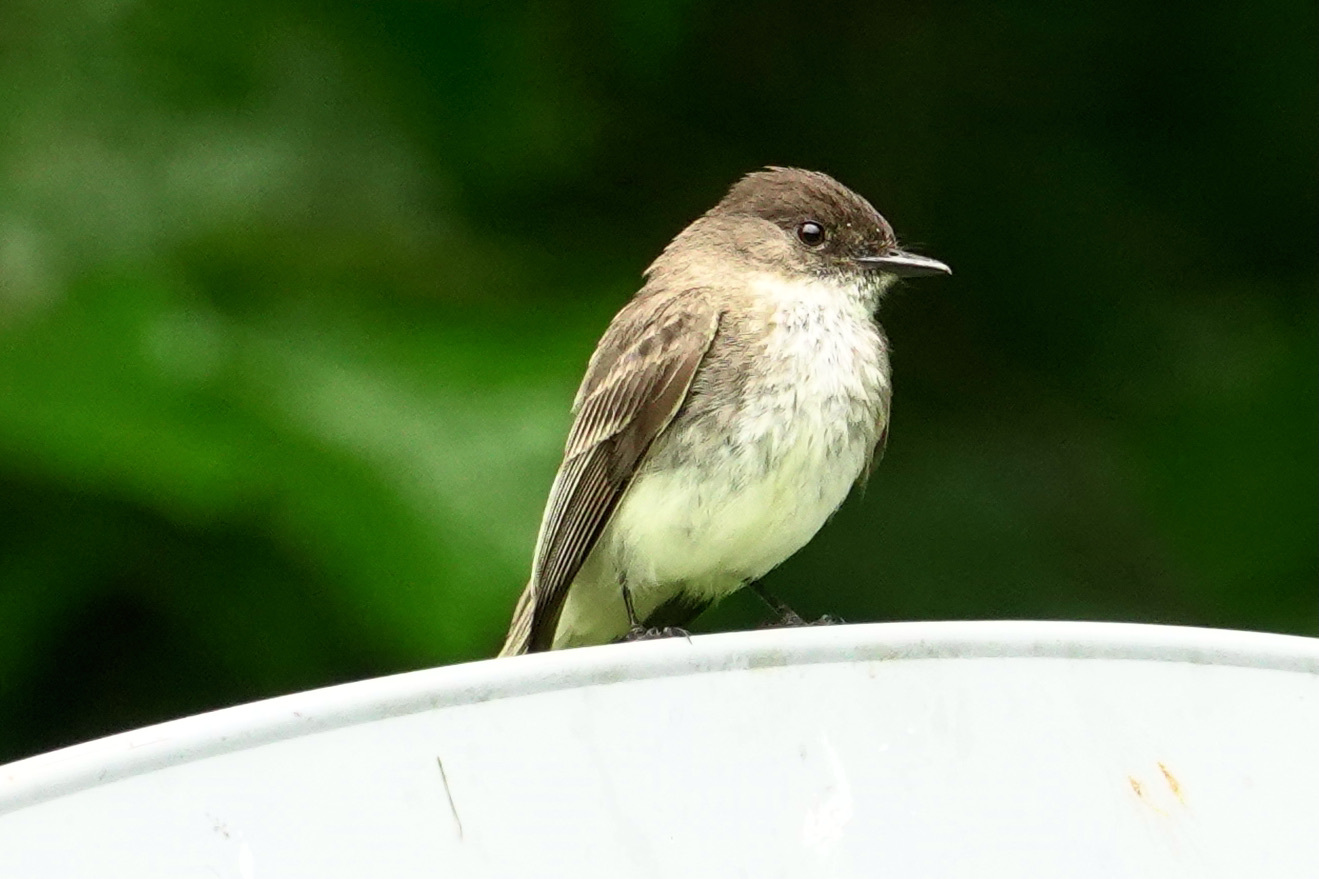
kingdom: Animalia
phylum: Chordata
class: Aves
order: Passeriformes
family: Tyrannidae
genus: Sayornis
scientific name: Sayornis phoebe
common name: Eastern phoebe
